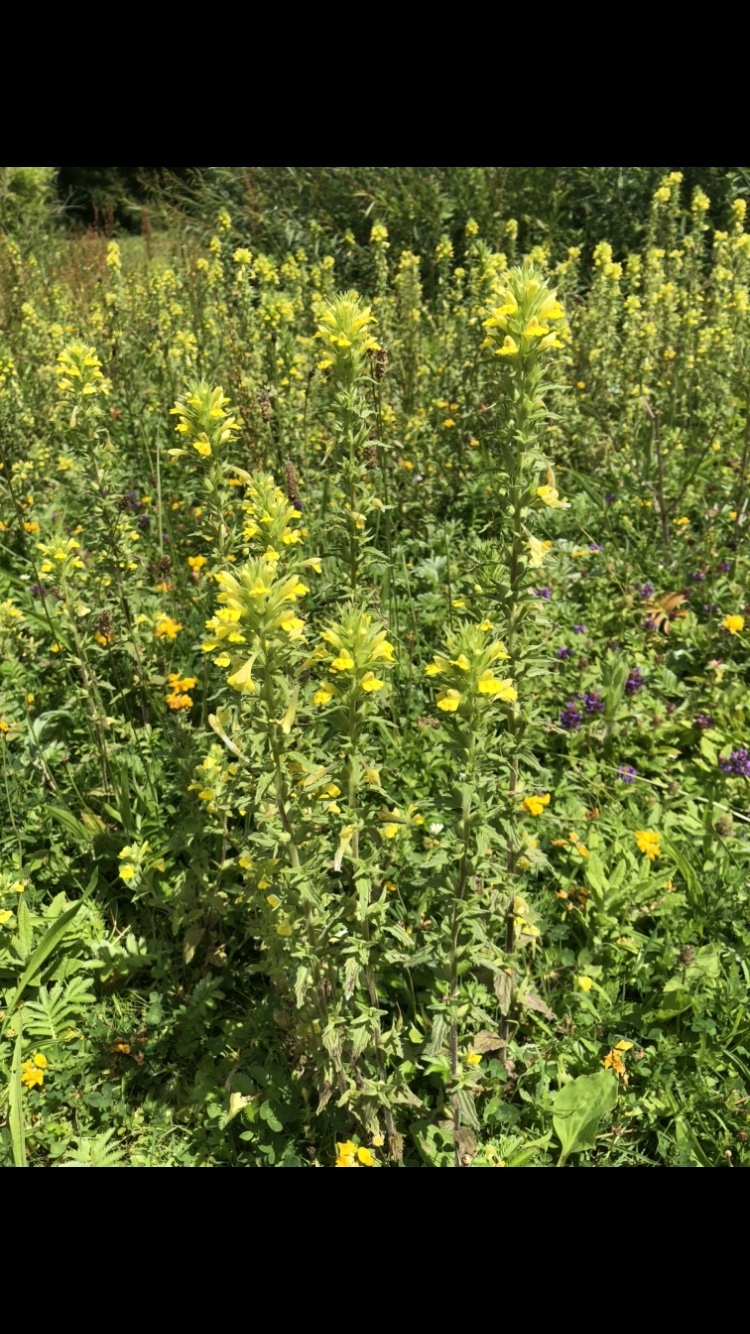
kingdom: Plantae
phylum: Tracheophyta
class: Magnoliopsida
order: Lamiales
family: Orobanchaceae
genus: Bellardia
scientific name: Bellardia viscosa
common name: Sticky parentucellia
